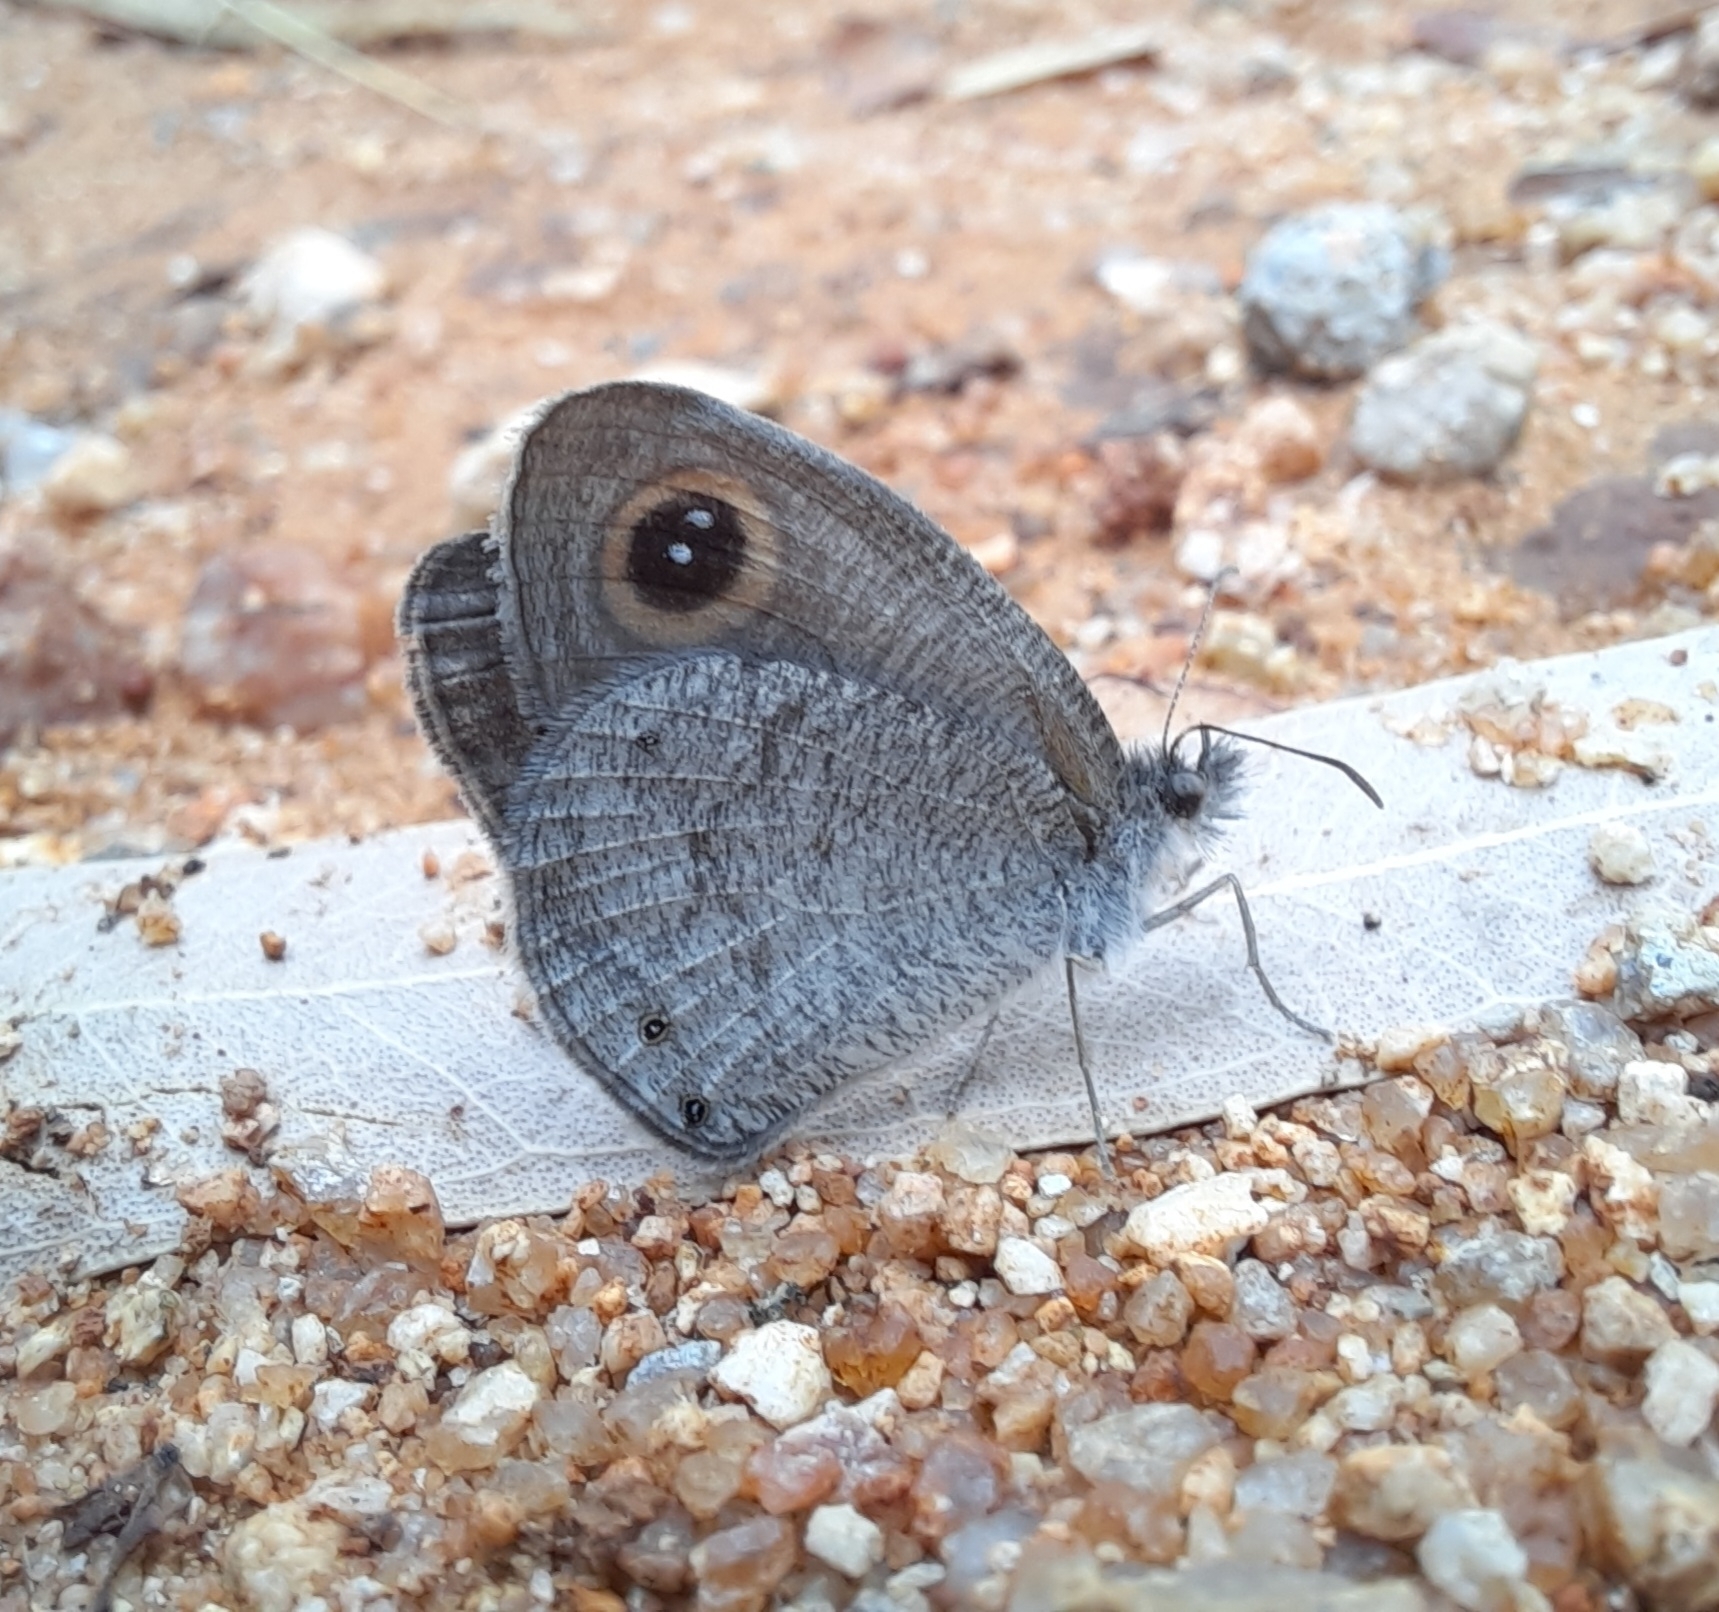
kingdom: Animalia
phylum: Arthropoda
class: Insecta
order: Lepidoptera
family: Nymphalidae
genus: Ypthima
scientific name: Ypthima asterope
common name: African ringlet
